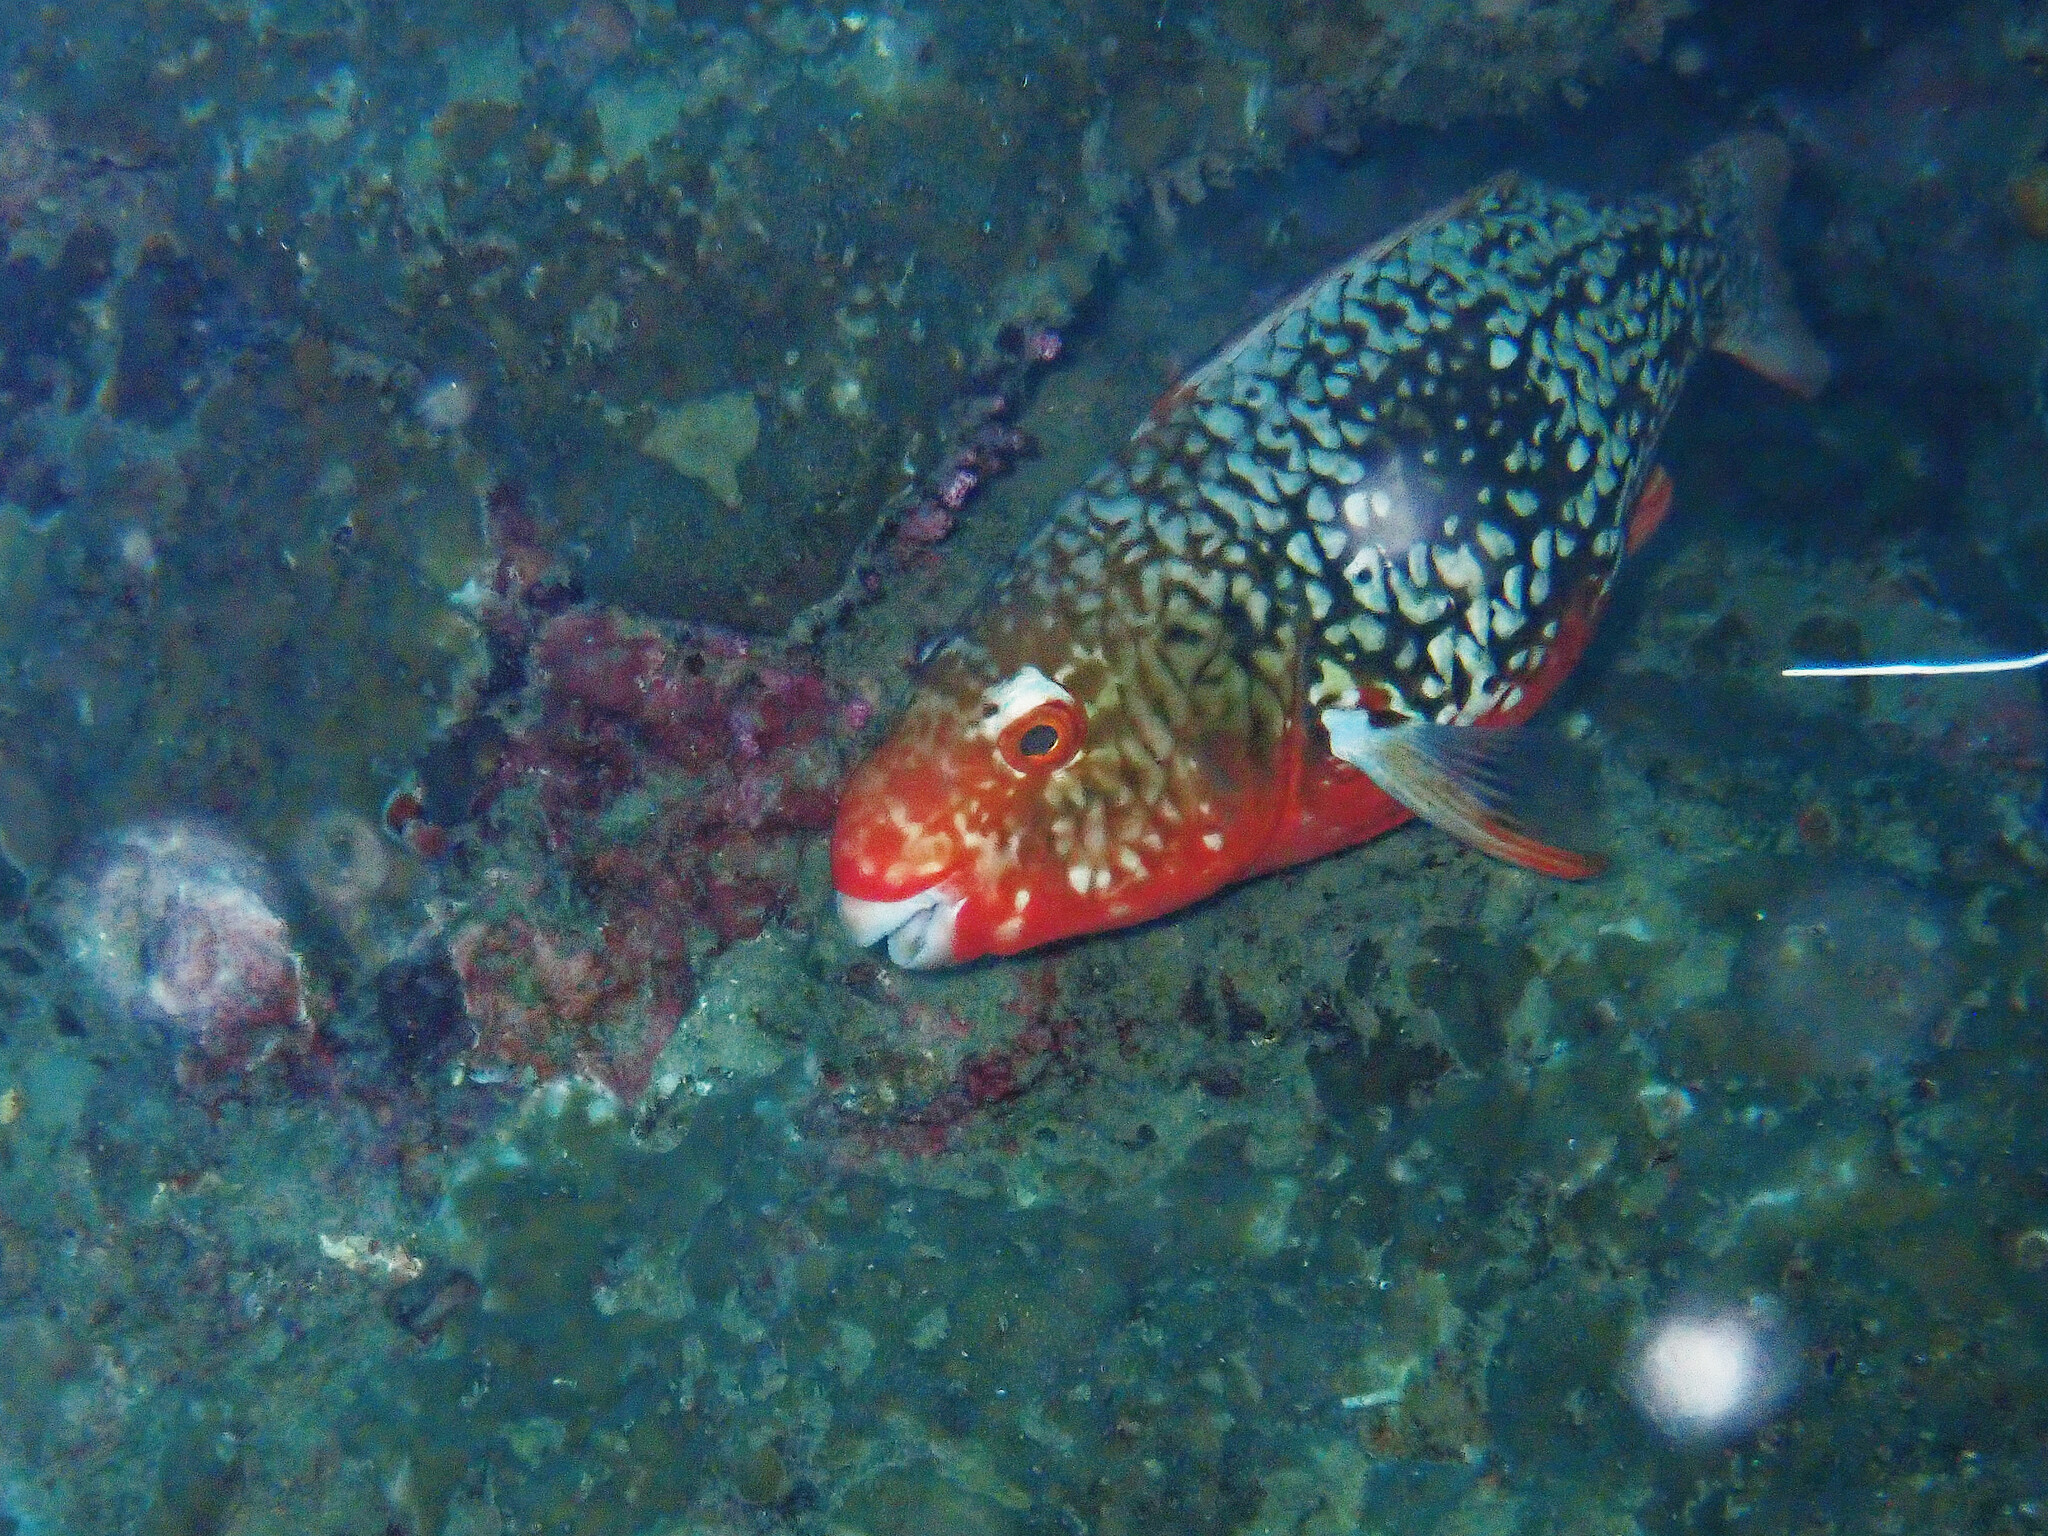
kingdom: Animalia
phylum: Chordata
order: Perciformes
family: Scaridae
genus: Scarus
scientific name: Scarus rubroviolaceus
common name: Ember parrotfish
